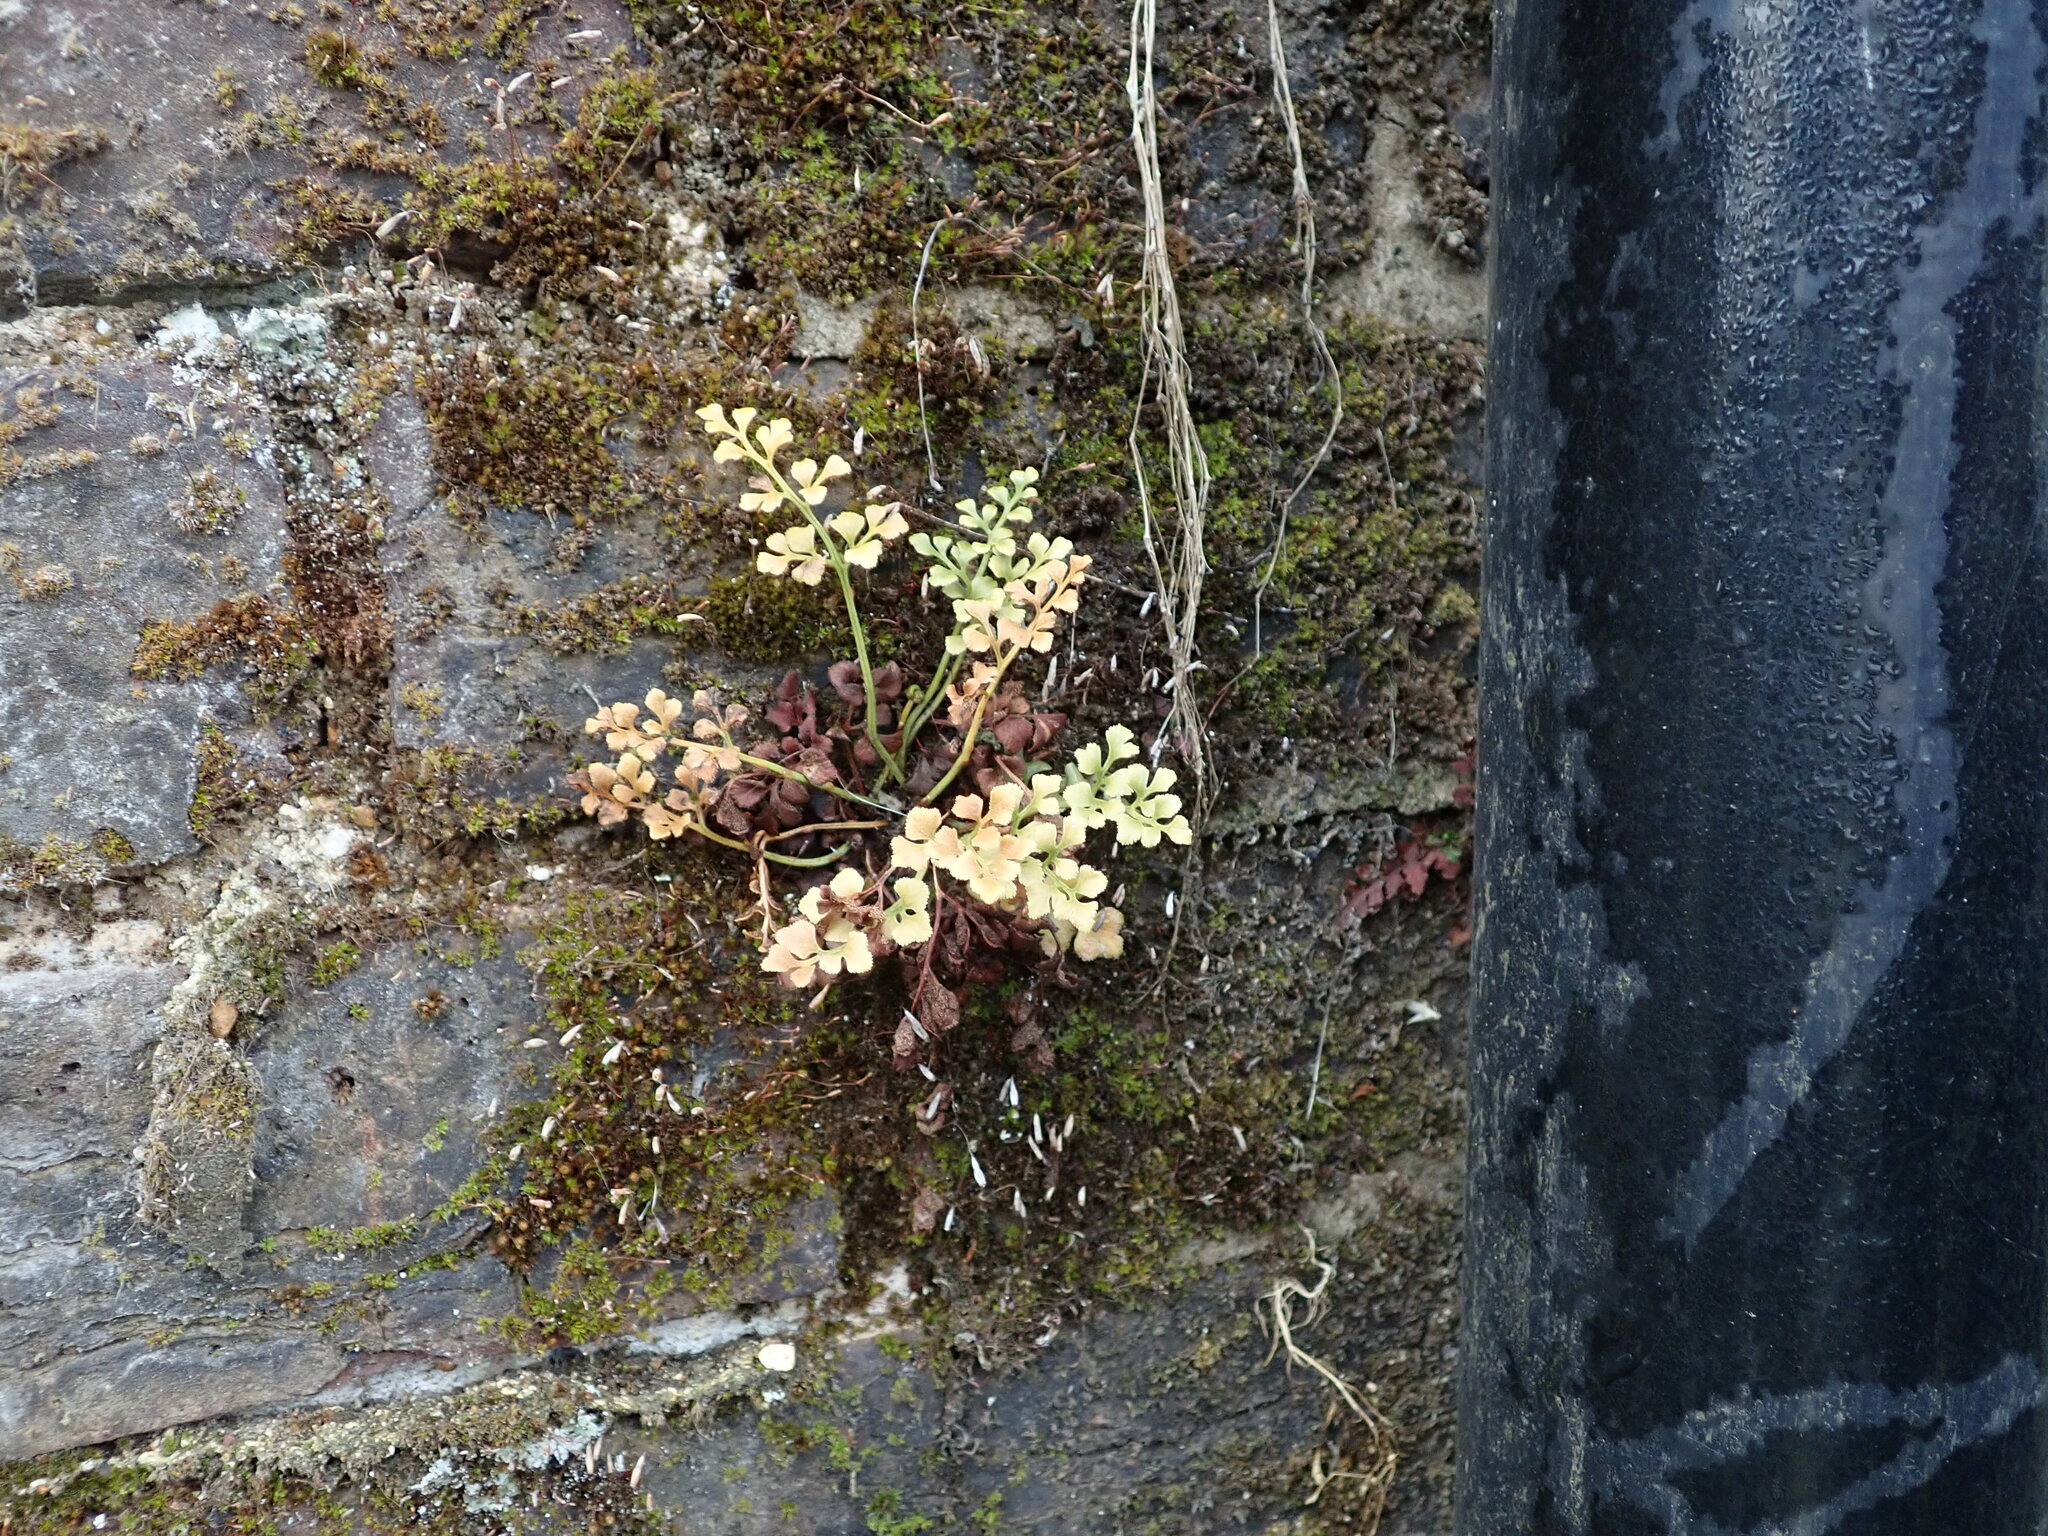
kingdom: Plantae
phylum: Tracheophyta
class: Polypodiopsida
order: Polypodiales
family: Aspleniaceae
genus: Asplenium
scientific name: Asplenium ruta-muraria
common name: Wall-rue
